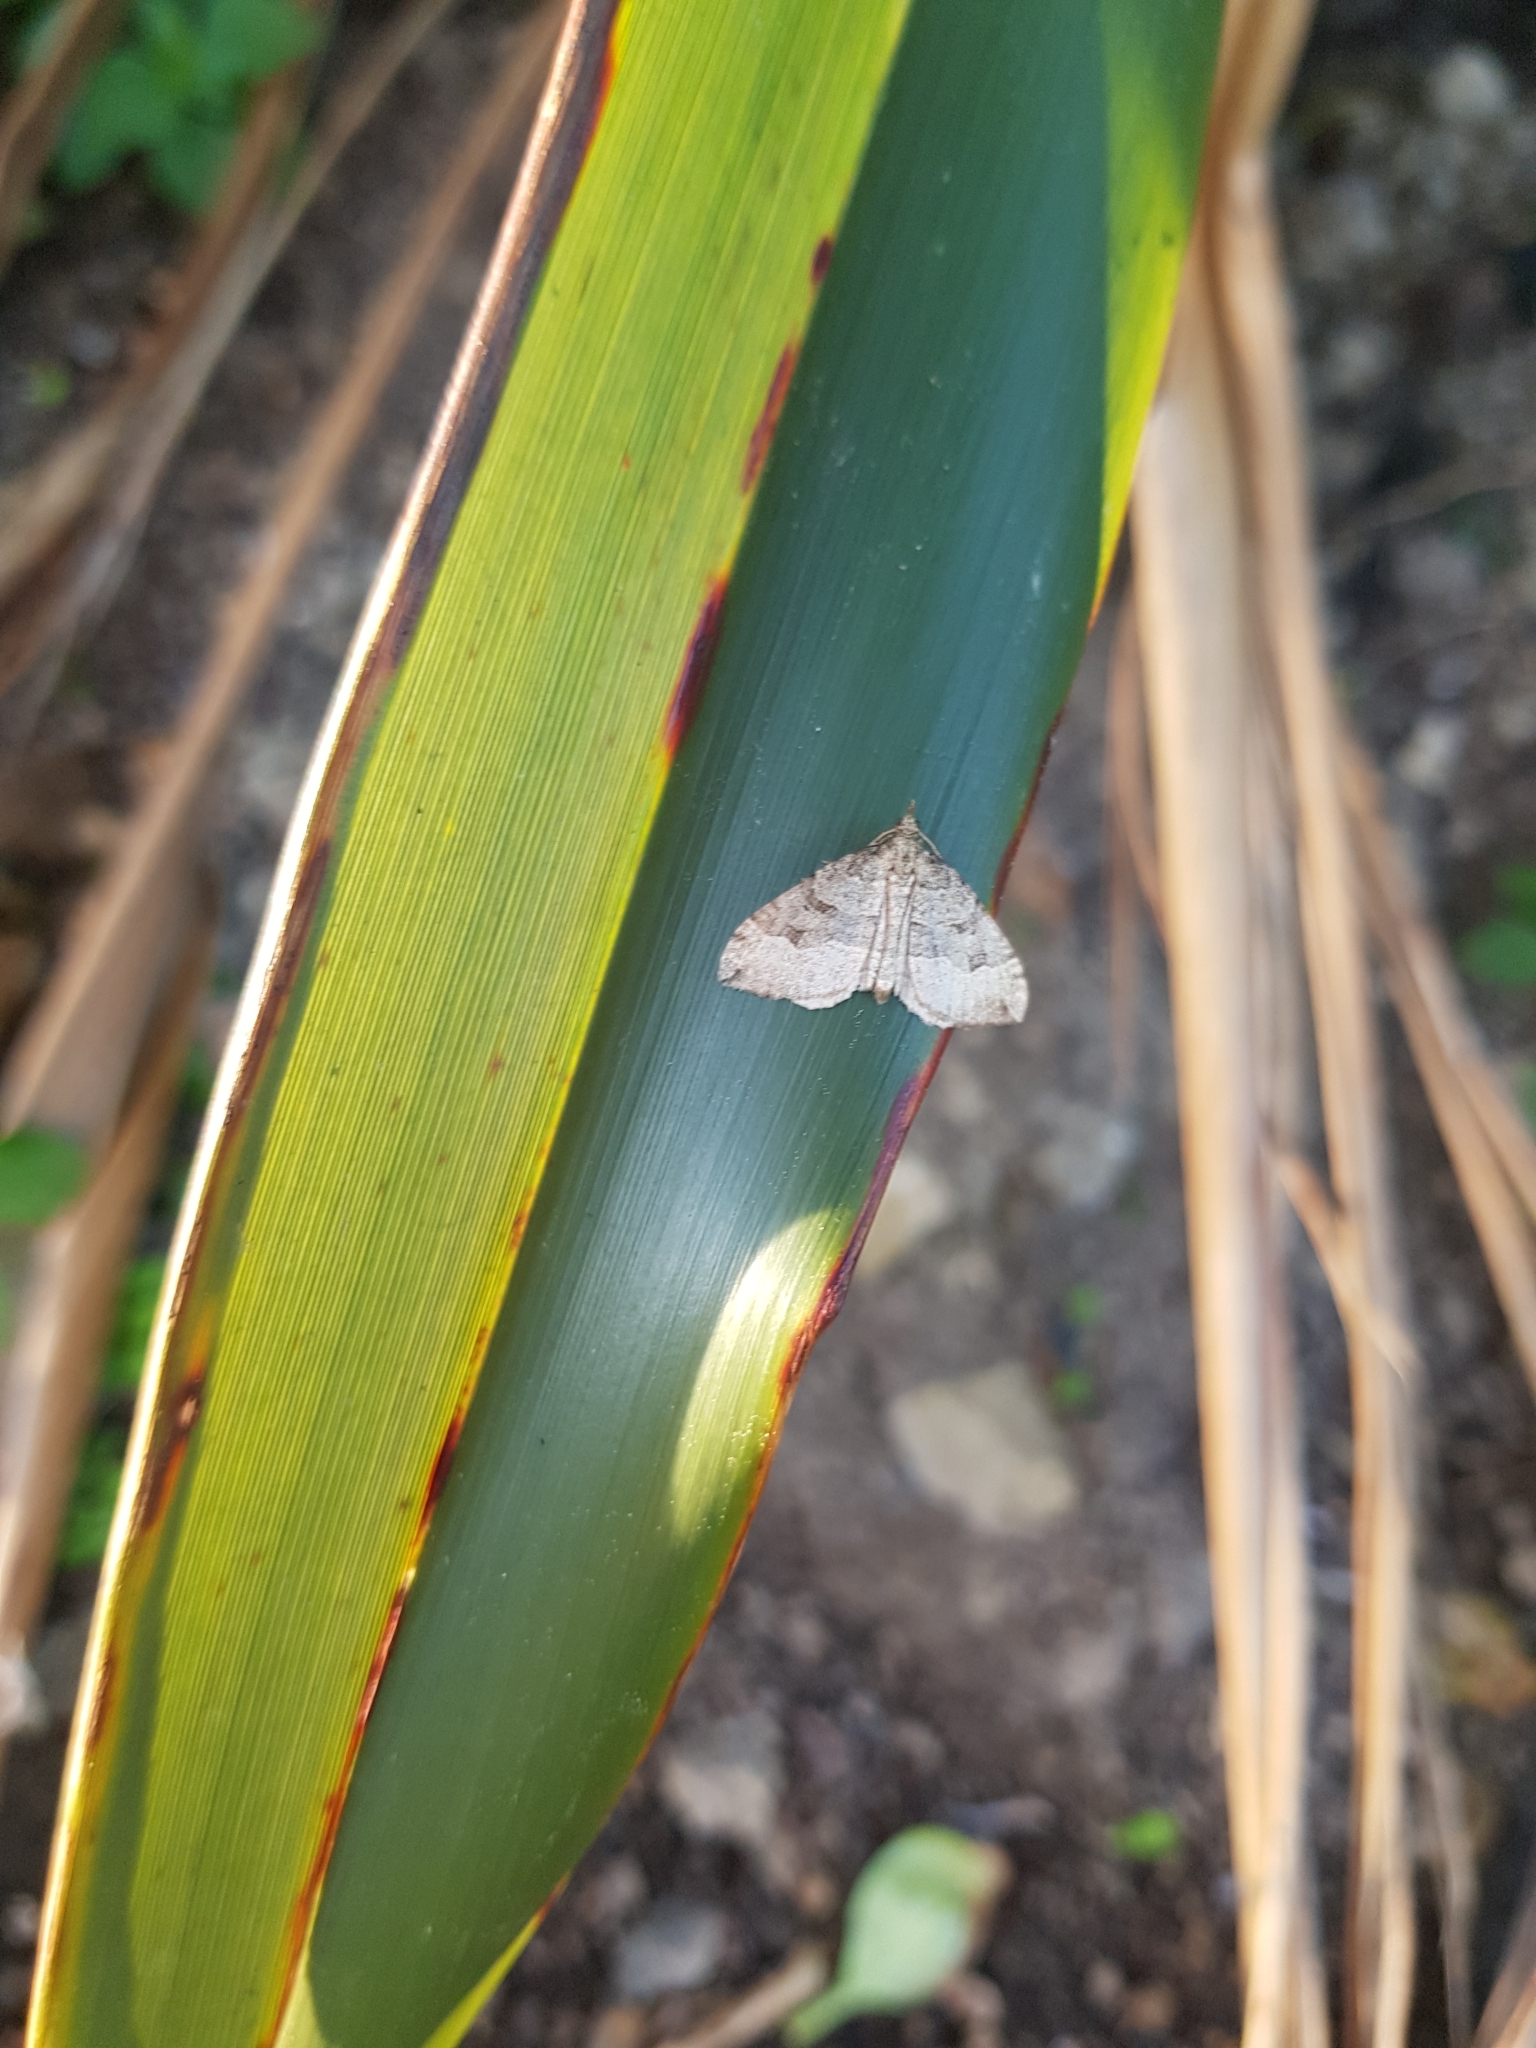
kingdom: Animalia
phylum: Arthropoda
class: Insecta
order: Lepidoptera
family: Geometridae
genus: Epyaxa
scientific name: Epyaxa rosearia
